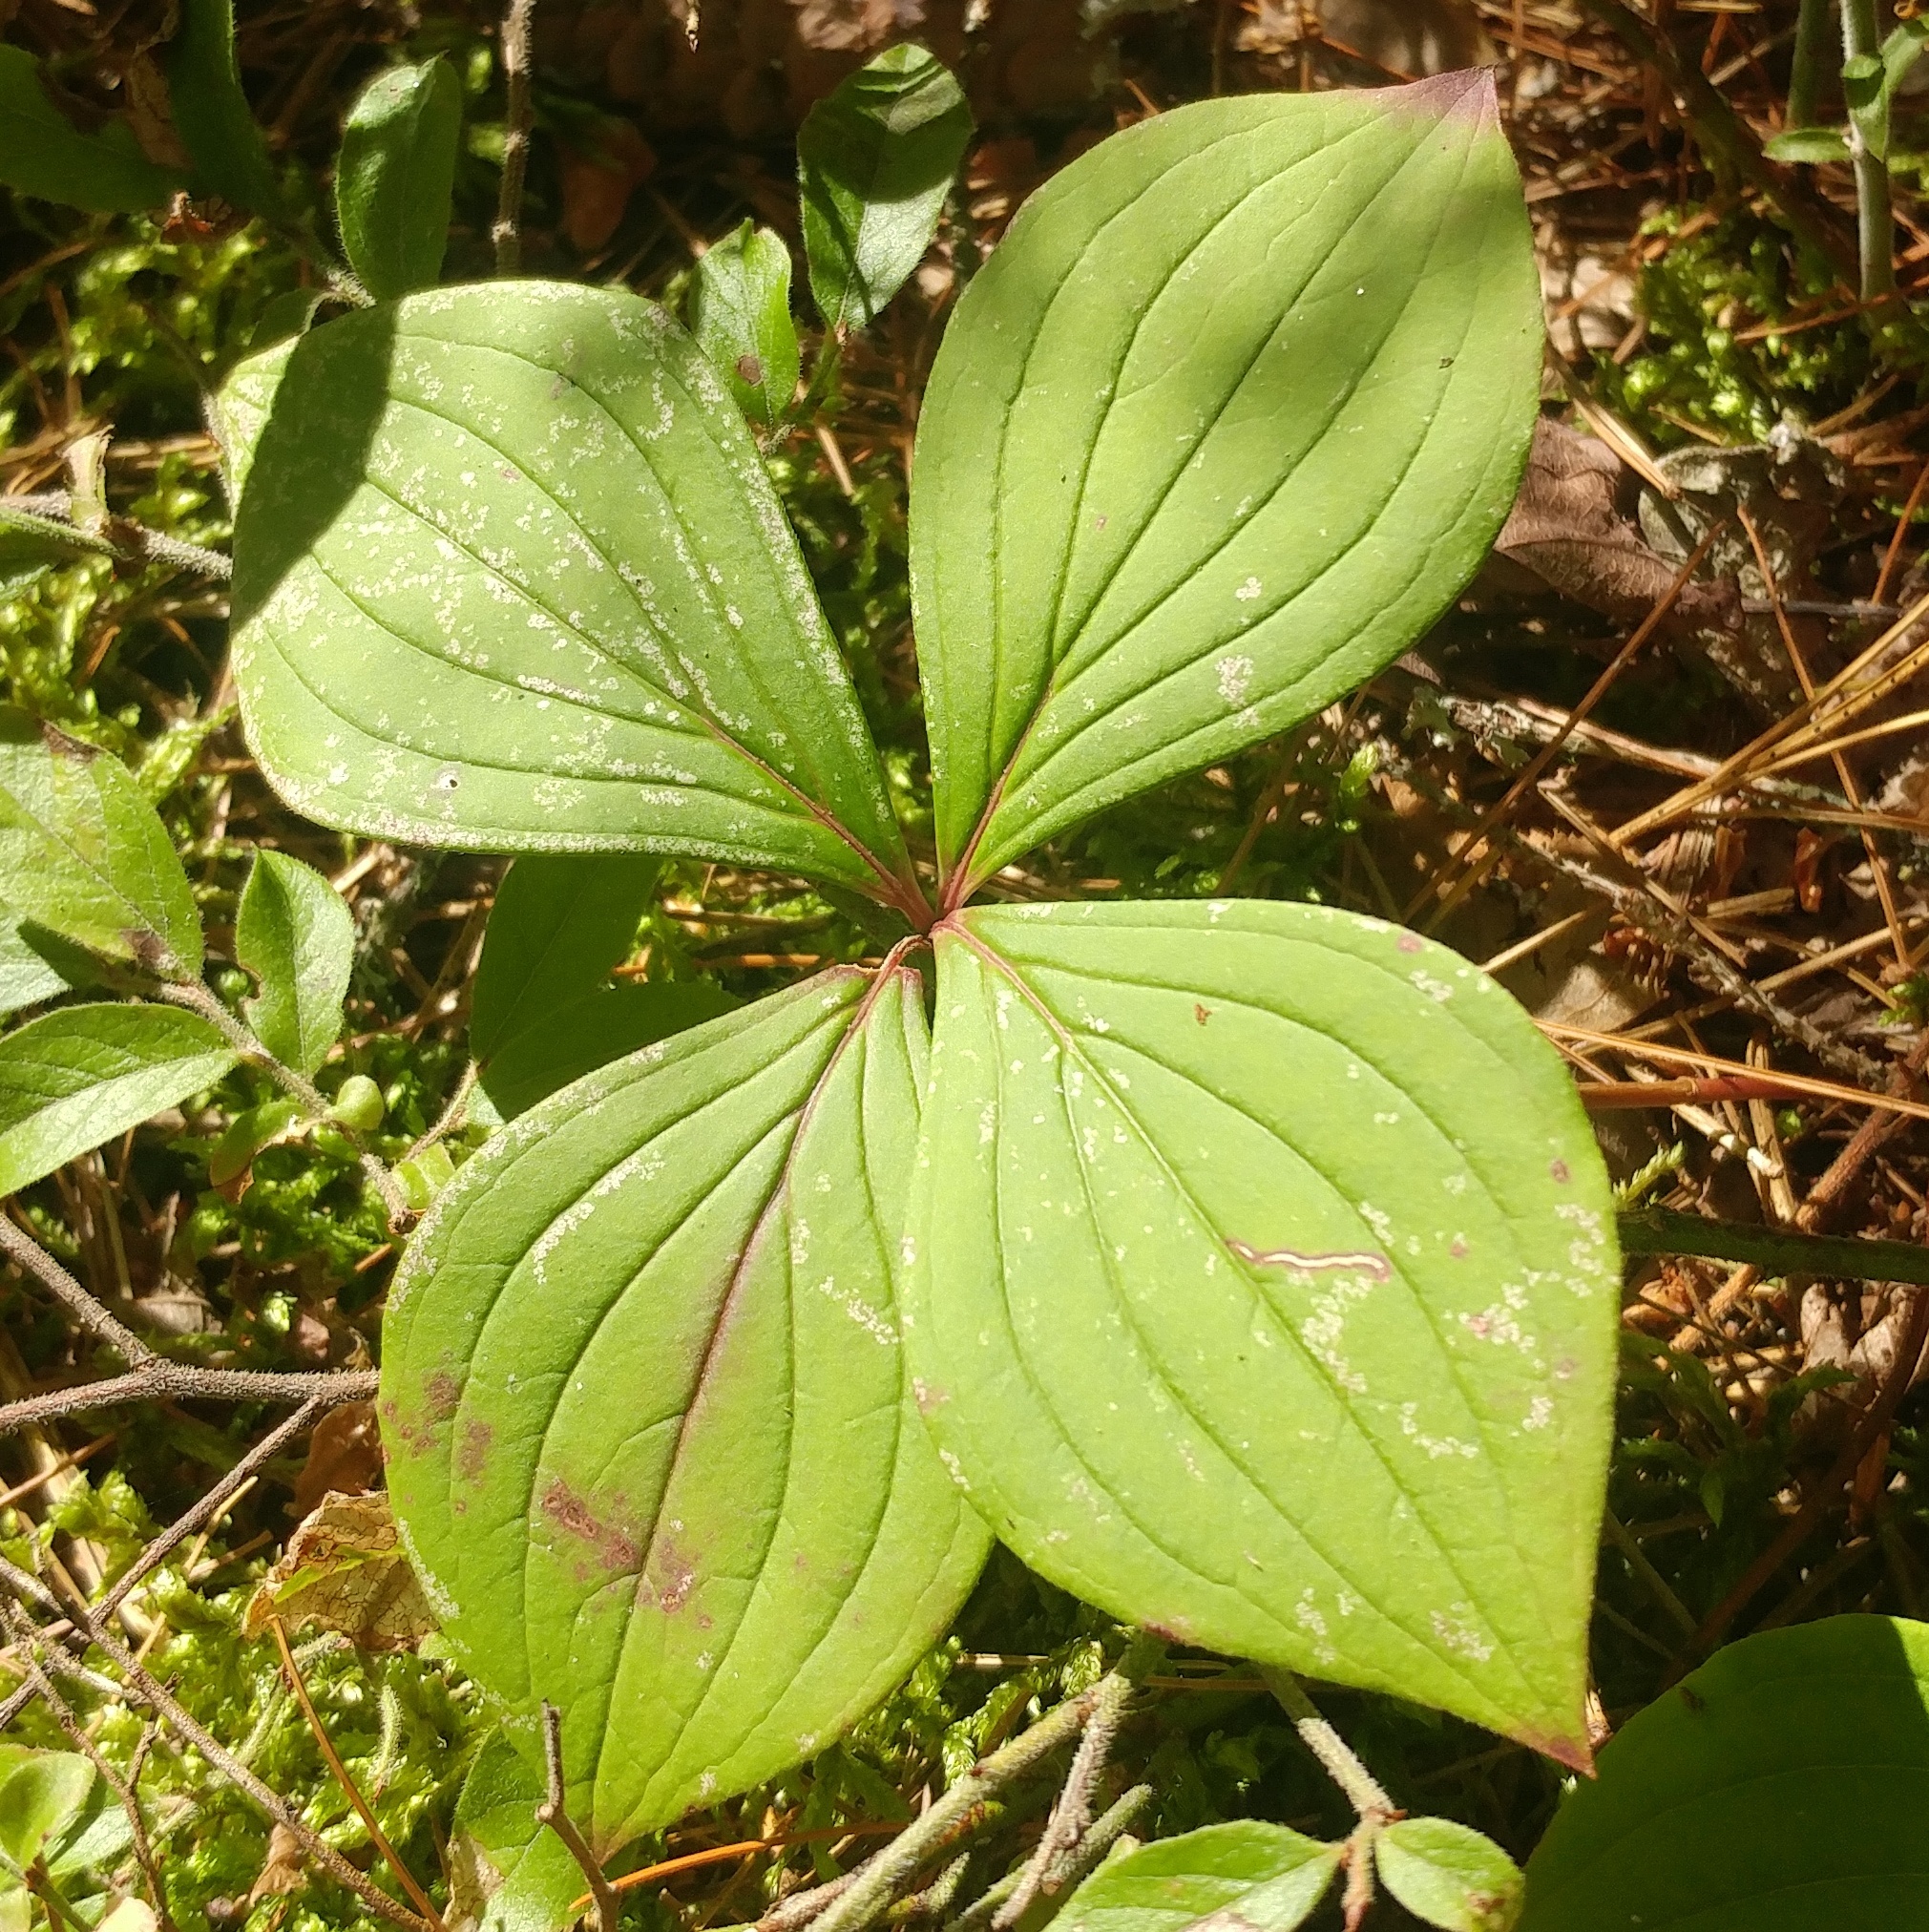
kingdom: Plantae
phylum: Tracheophyta
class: Magnoliopsida
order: Cornales
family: Cornaceae
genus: Cornus
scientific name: Cornus canadensis
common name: Creeping dogwood
